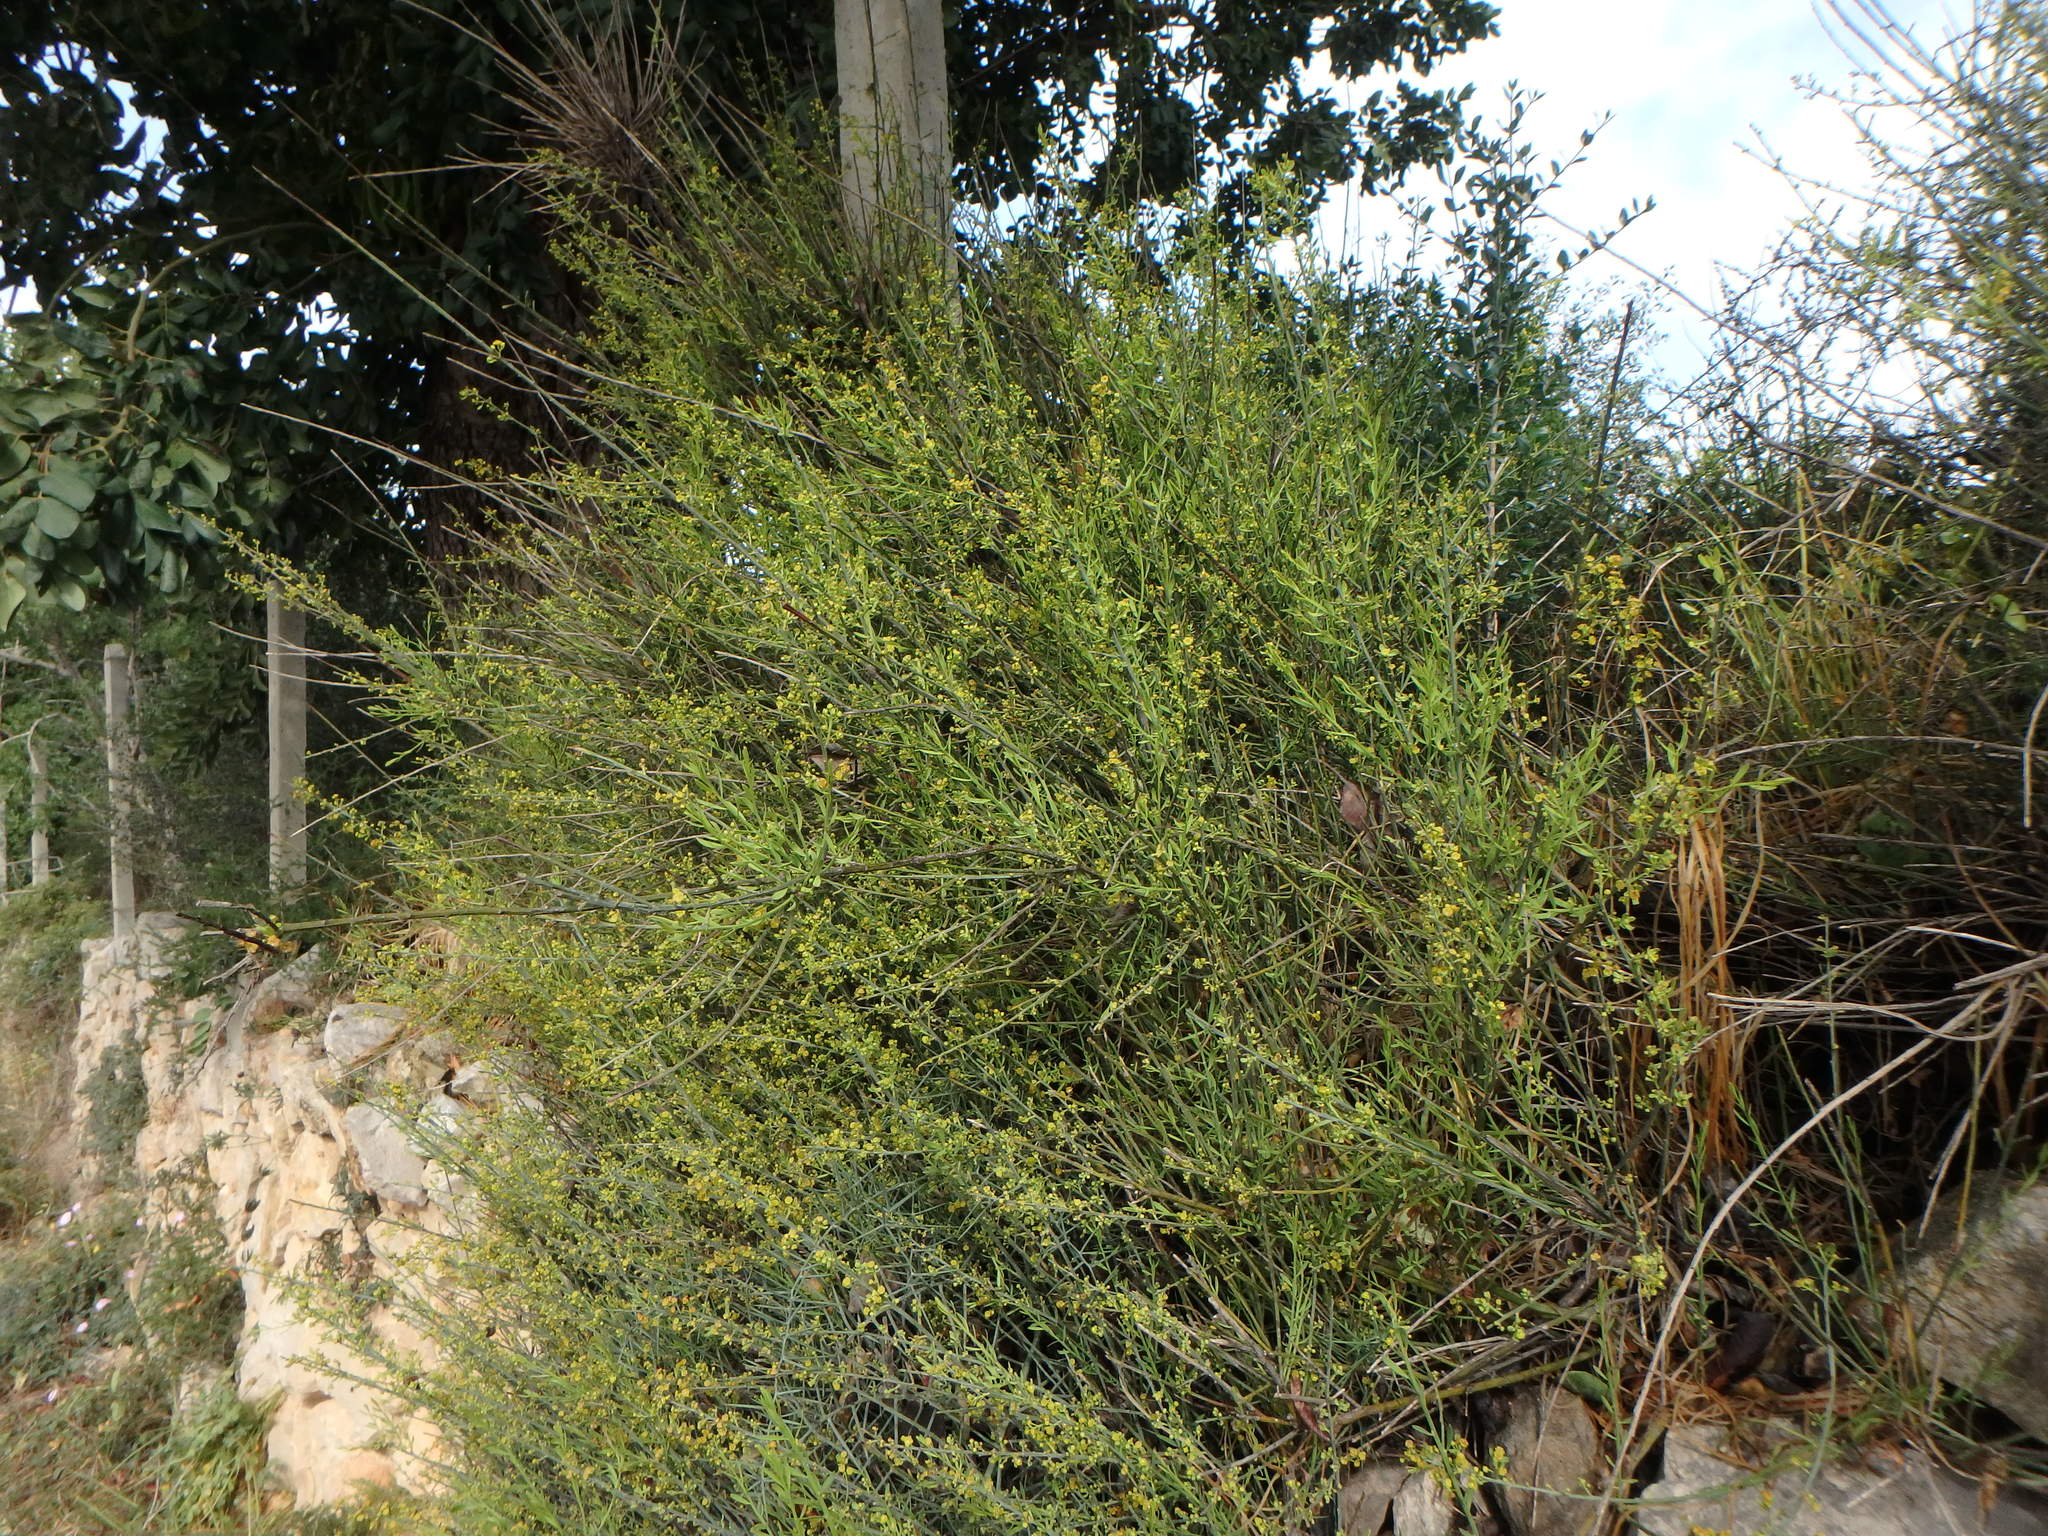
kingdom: Plantae
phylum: Tracheophyta
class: Magnoliopsida
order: Santalales
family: Santalaceae
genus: Osyris
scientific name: Osyris alba
